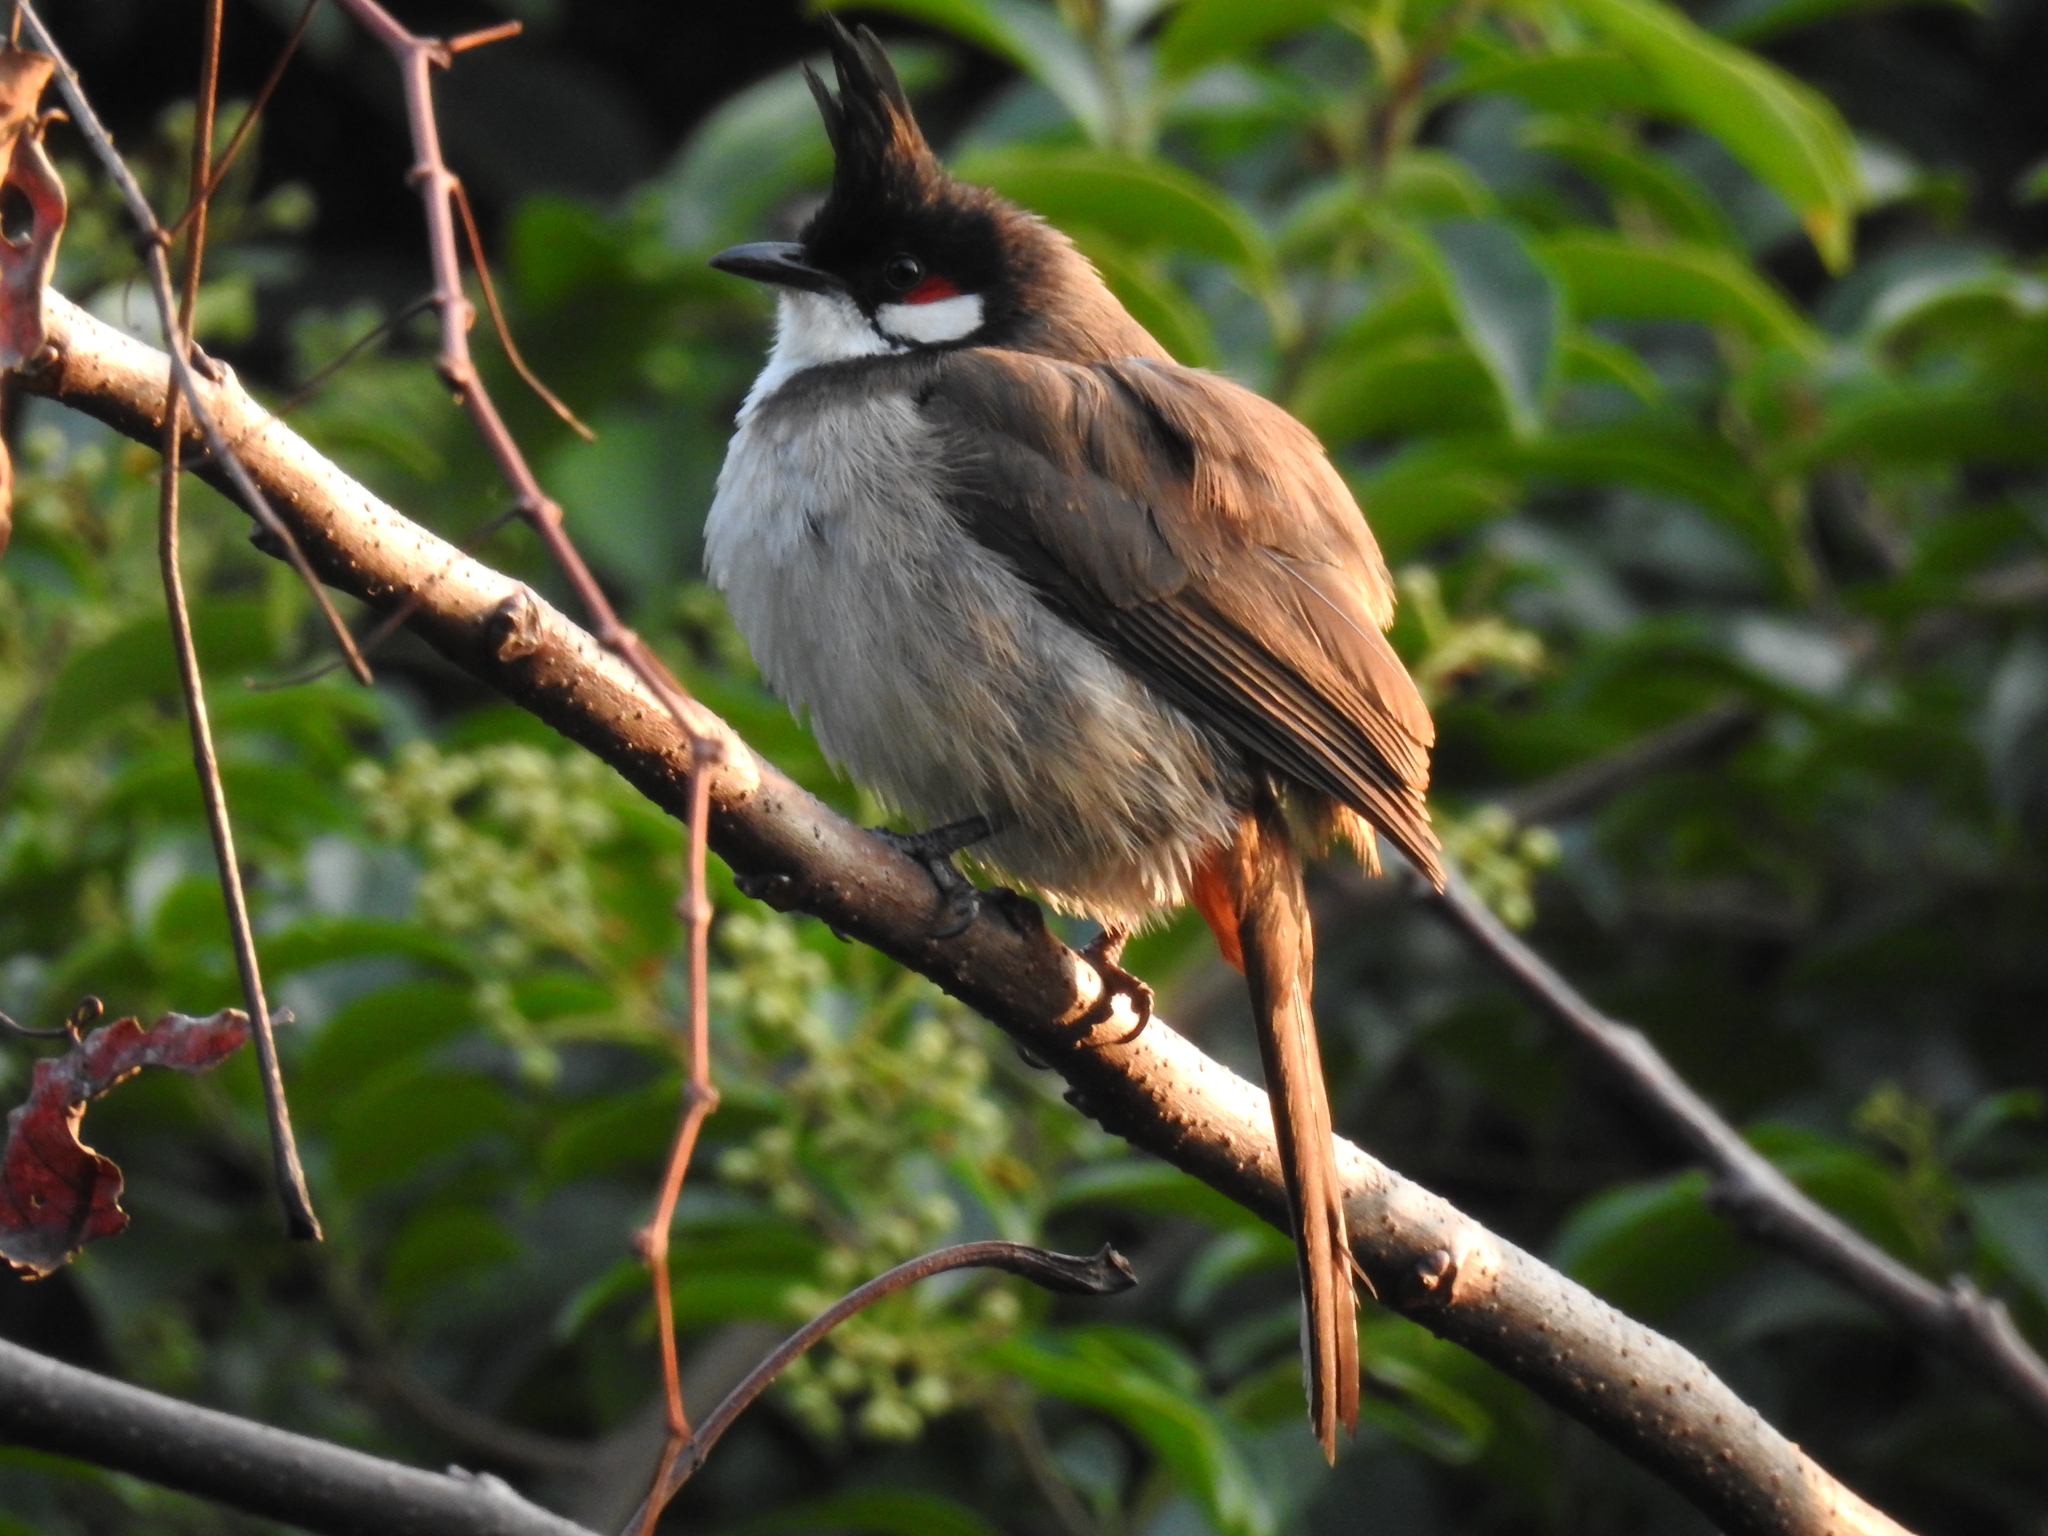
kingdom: Animalia
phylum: Chordata
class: Aves
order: Passeriformes
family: Pycnonotidae
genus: Pycnonotus
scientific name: Pycnonotus jocosus
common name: Red-whiskered bulbul
